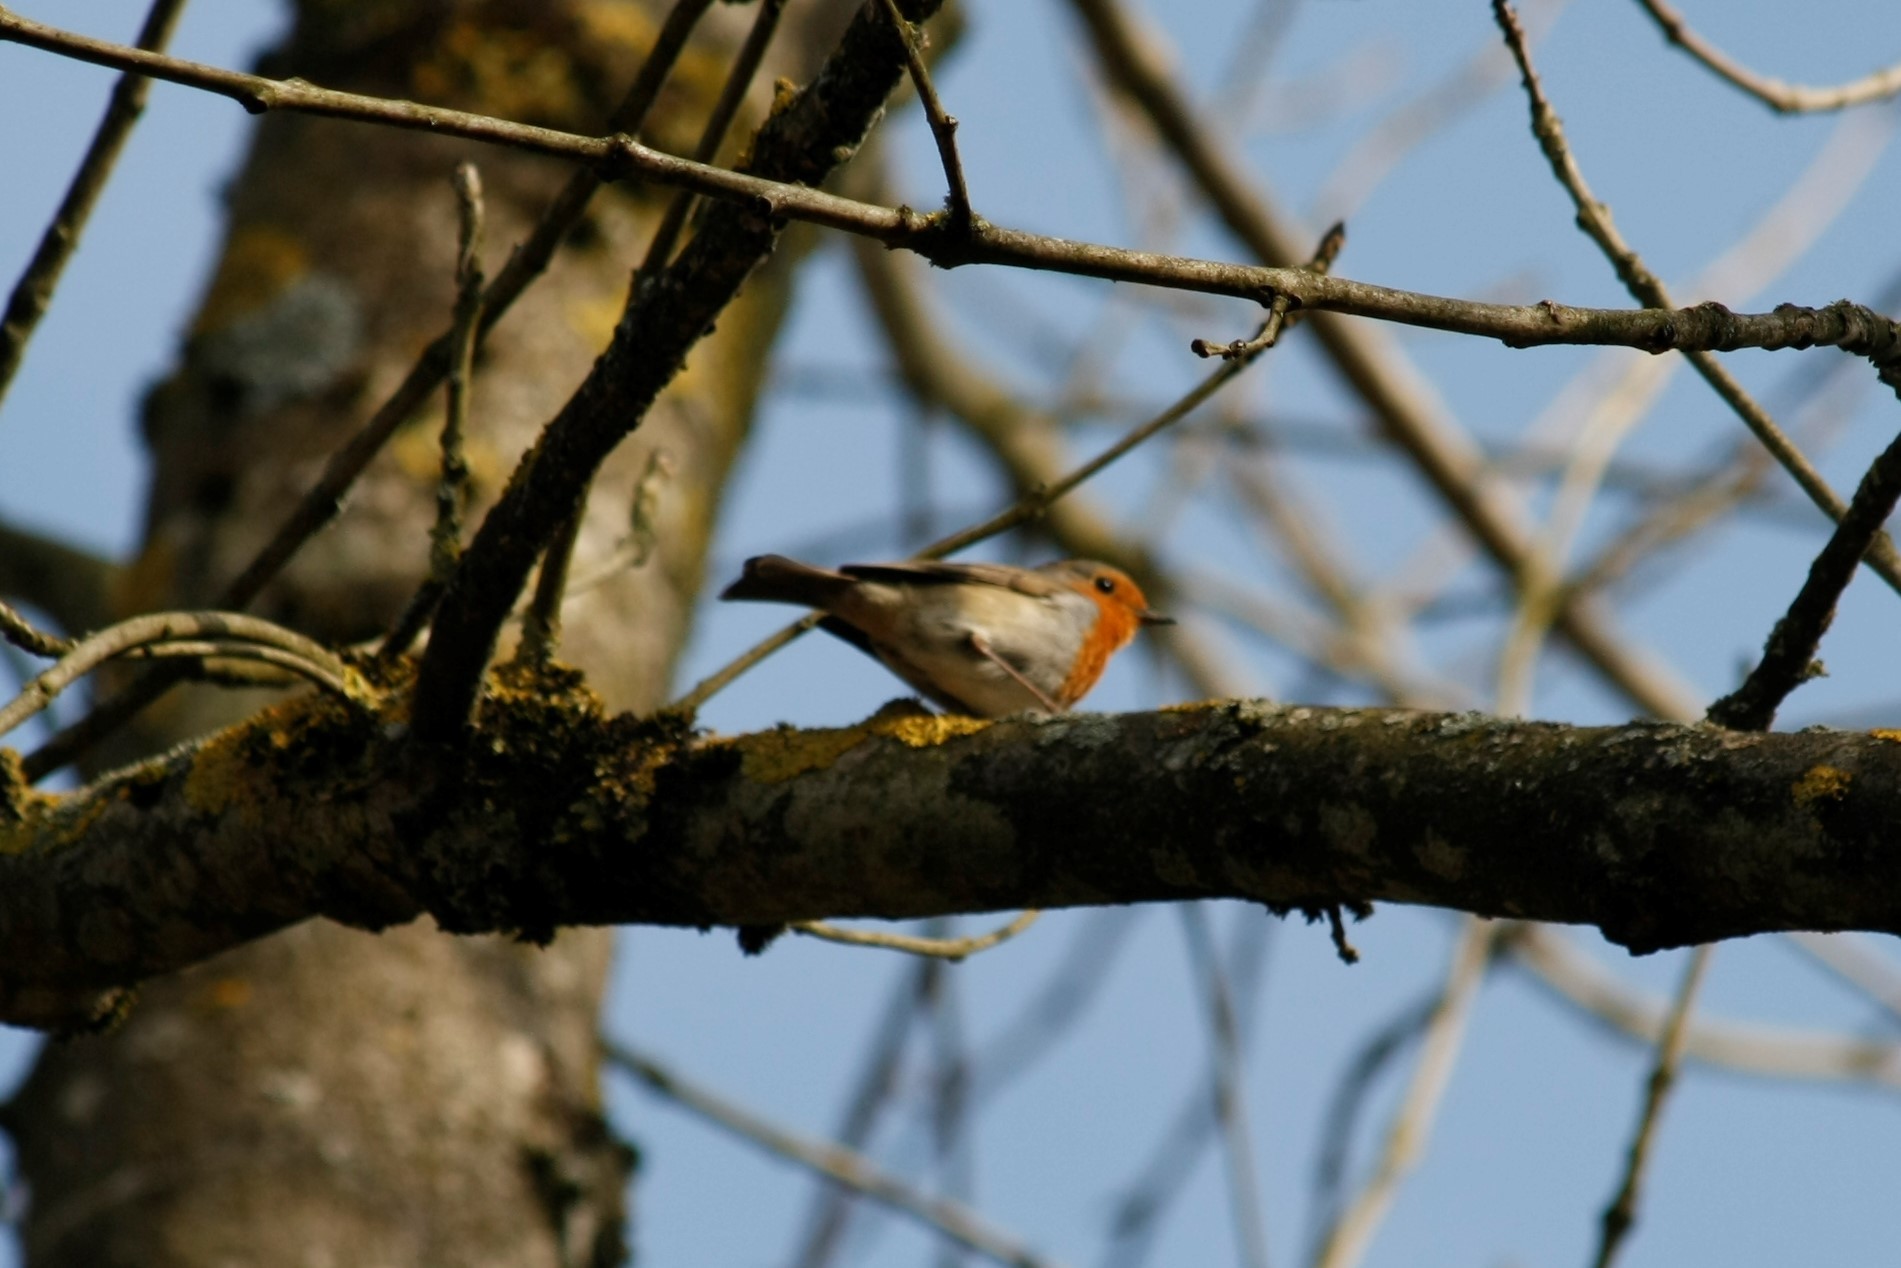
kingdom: Animalia
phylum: Chordata
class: Aves
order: Passeriformes
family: Muscicapidae
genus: Erithacus
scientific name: Erithacus rubecula
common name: European robin
